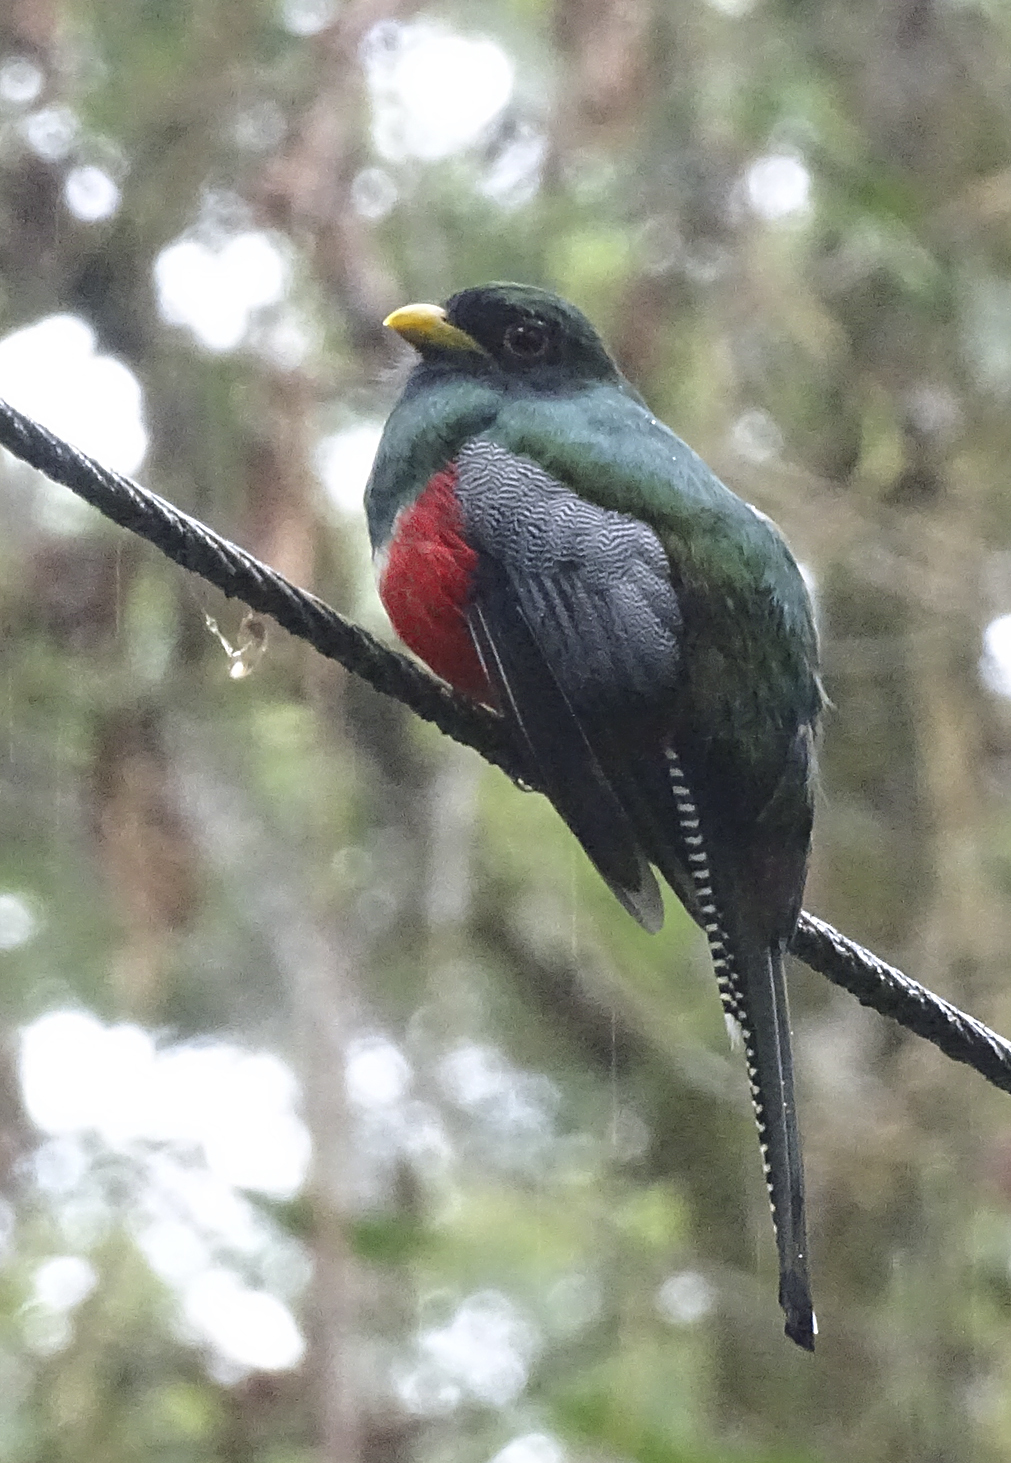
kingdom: Animalia
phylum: Chordata
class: Aves
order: Trogoniformes
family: Trogonidae
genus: Trogon
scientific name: Trogon collaris
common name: Collared trogon
